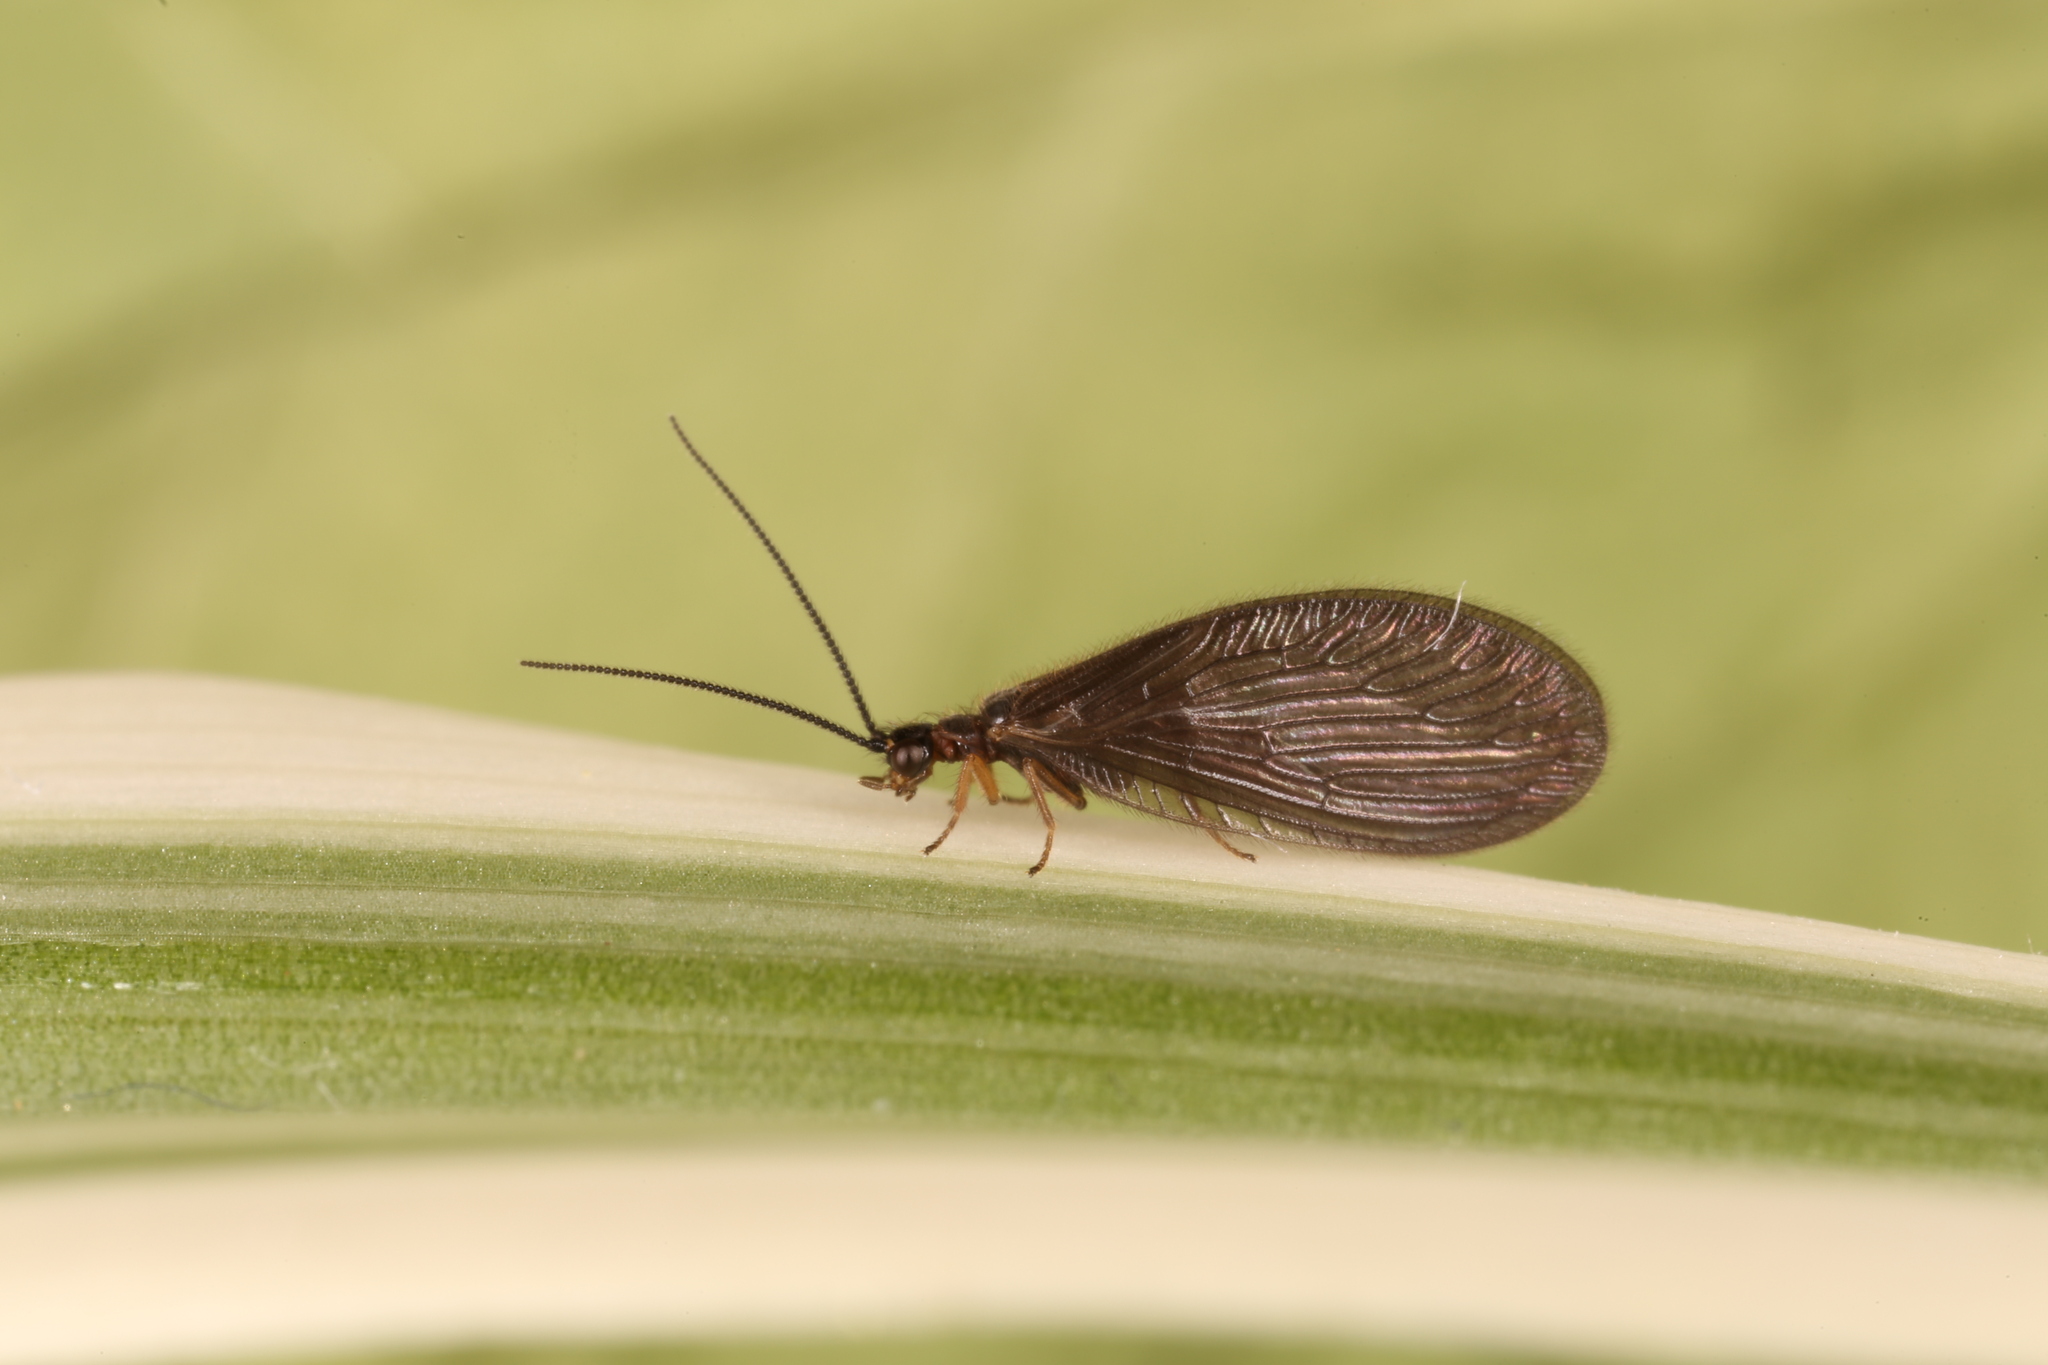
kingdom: Animalia
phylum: Arthropoda
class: Insecta
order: Neuroptera
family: Sisyridae
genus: Sisyra
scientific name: Sisyra nigra
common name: Black spongillafly
